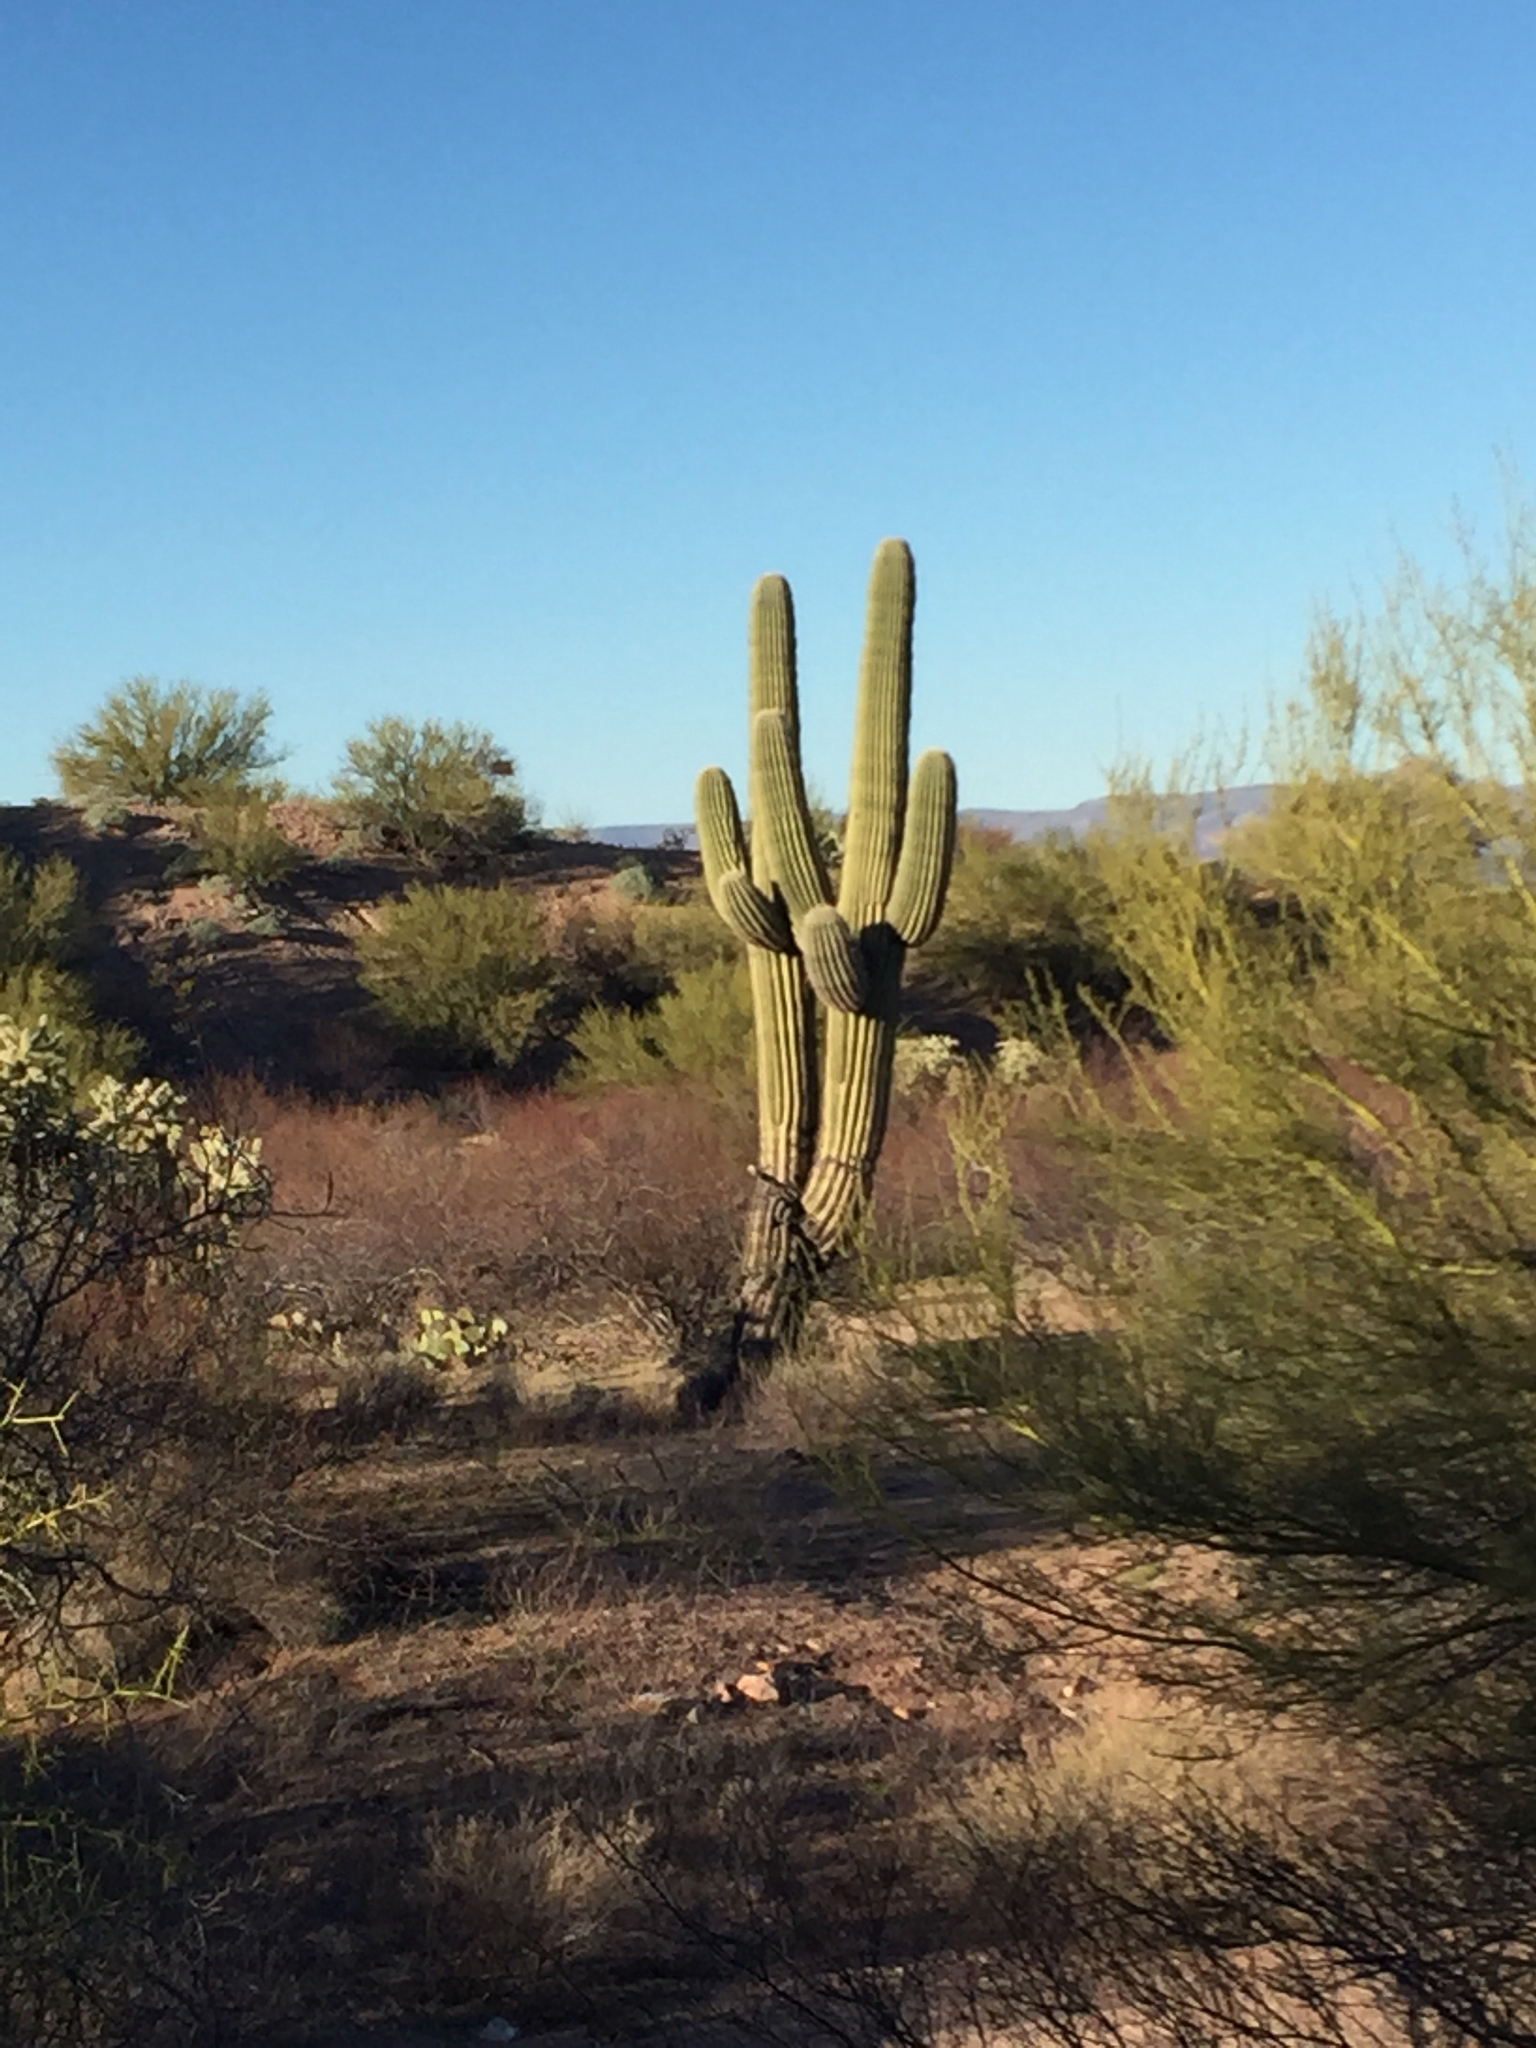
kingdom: Plantae
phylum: Tracheophyta
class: Magnoliopsida
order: Caryophyllales
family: Cactaceae
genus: Carnegiea
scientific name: Carnegiea gigantea
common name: Saguaro
